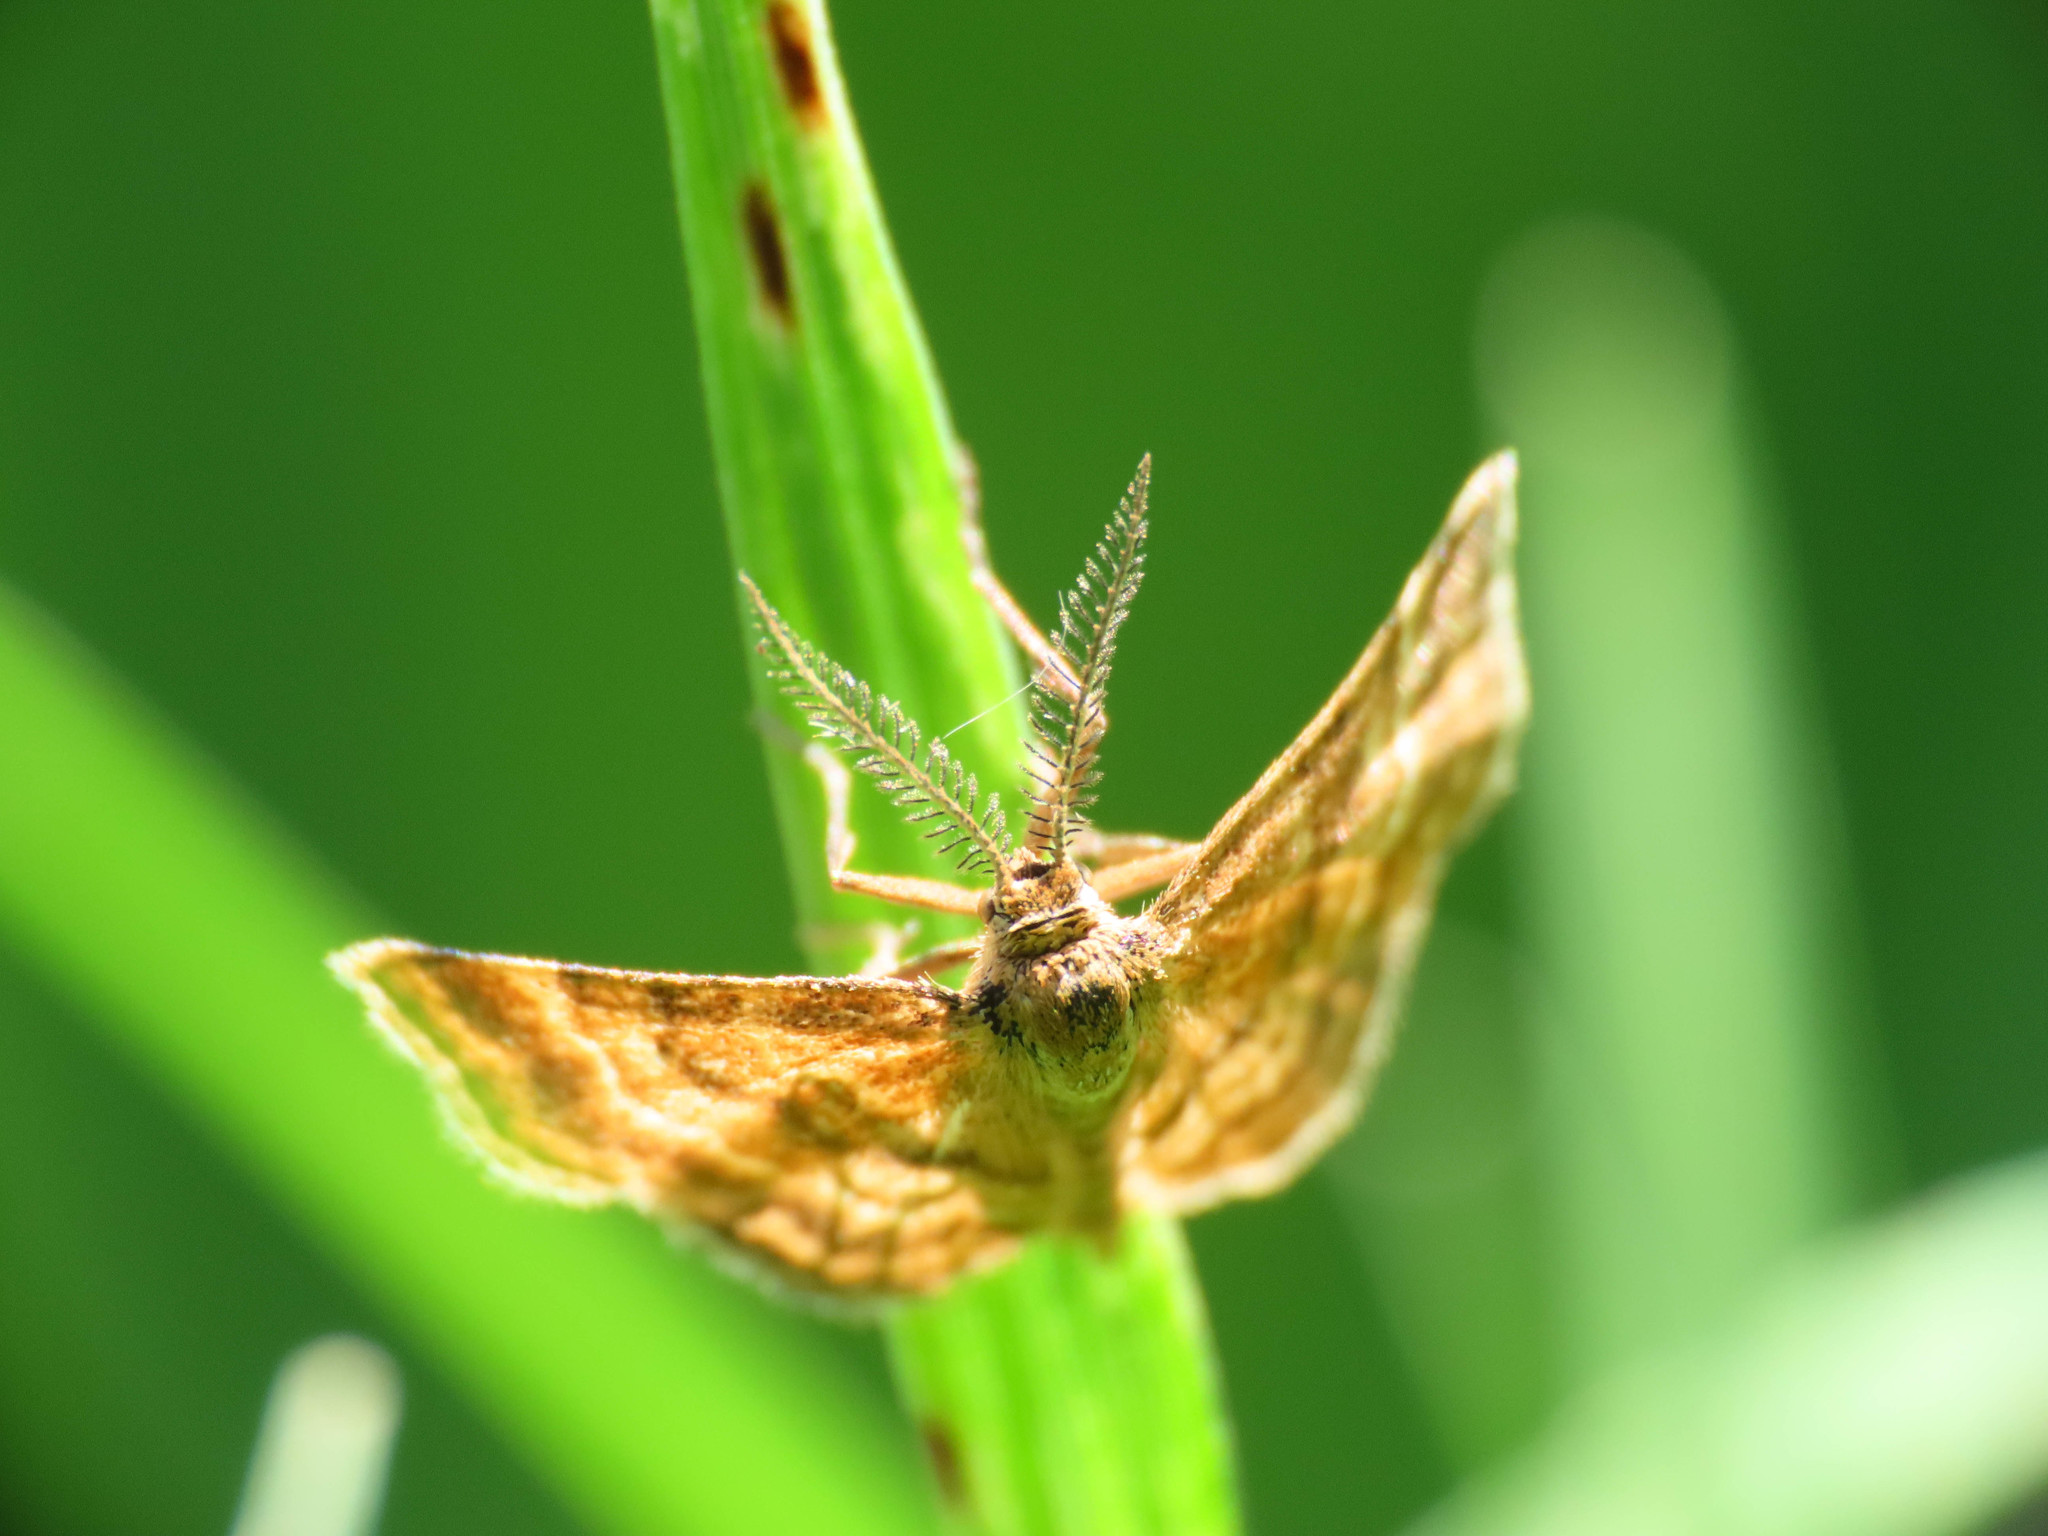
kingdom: Animalia
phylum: Arthropoda
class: Insecta
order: Lepidoptera
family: Geometridae
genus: Emmiltis
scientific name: Emmiltis pygmaearia
